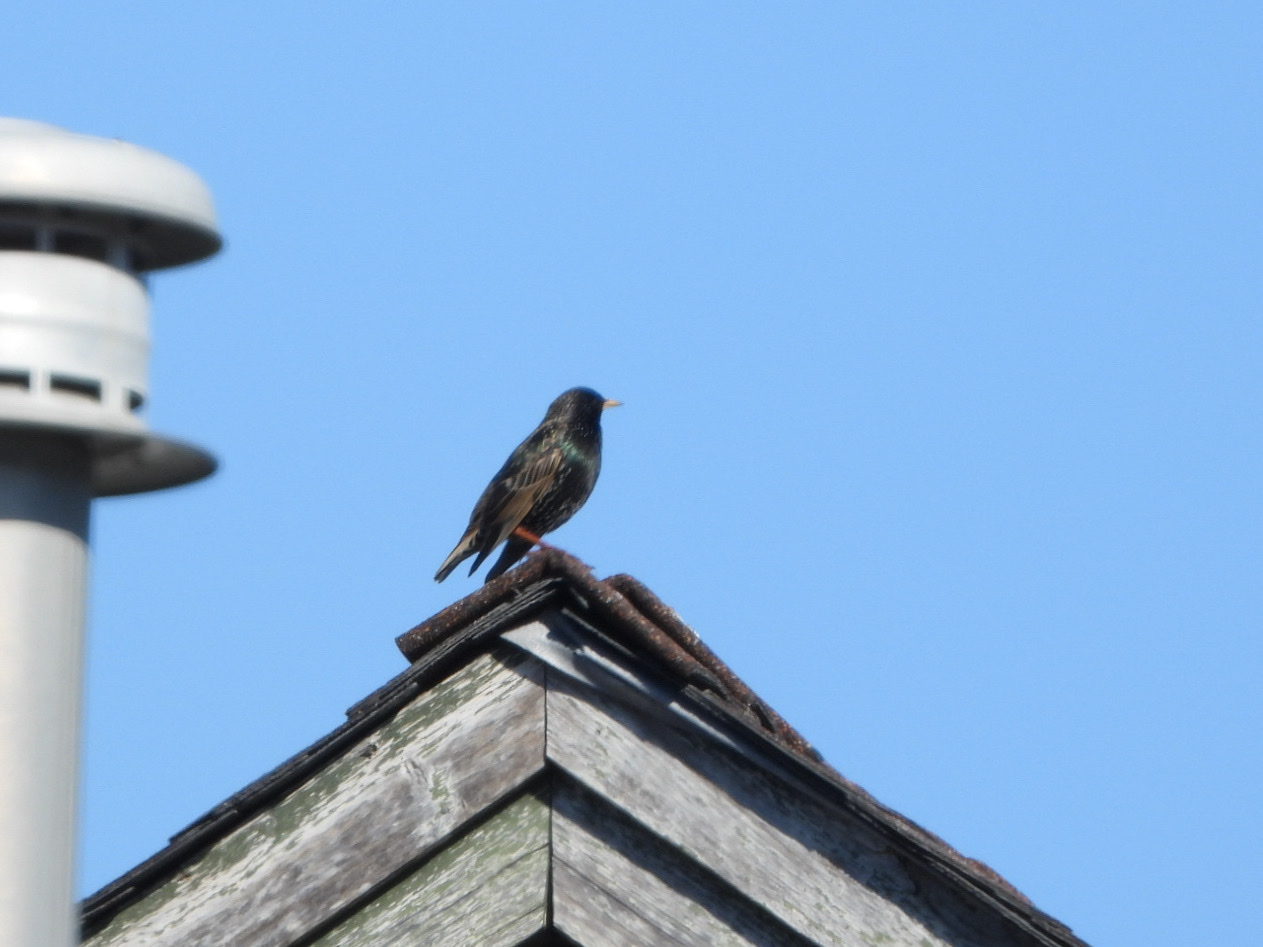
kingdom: Animalia
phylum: Chordata
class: Aves
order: Passeriformes
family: Sturnidae
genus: Sturnus
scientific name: Sturnus vulgaris
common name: Common starling
